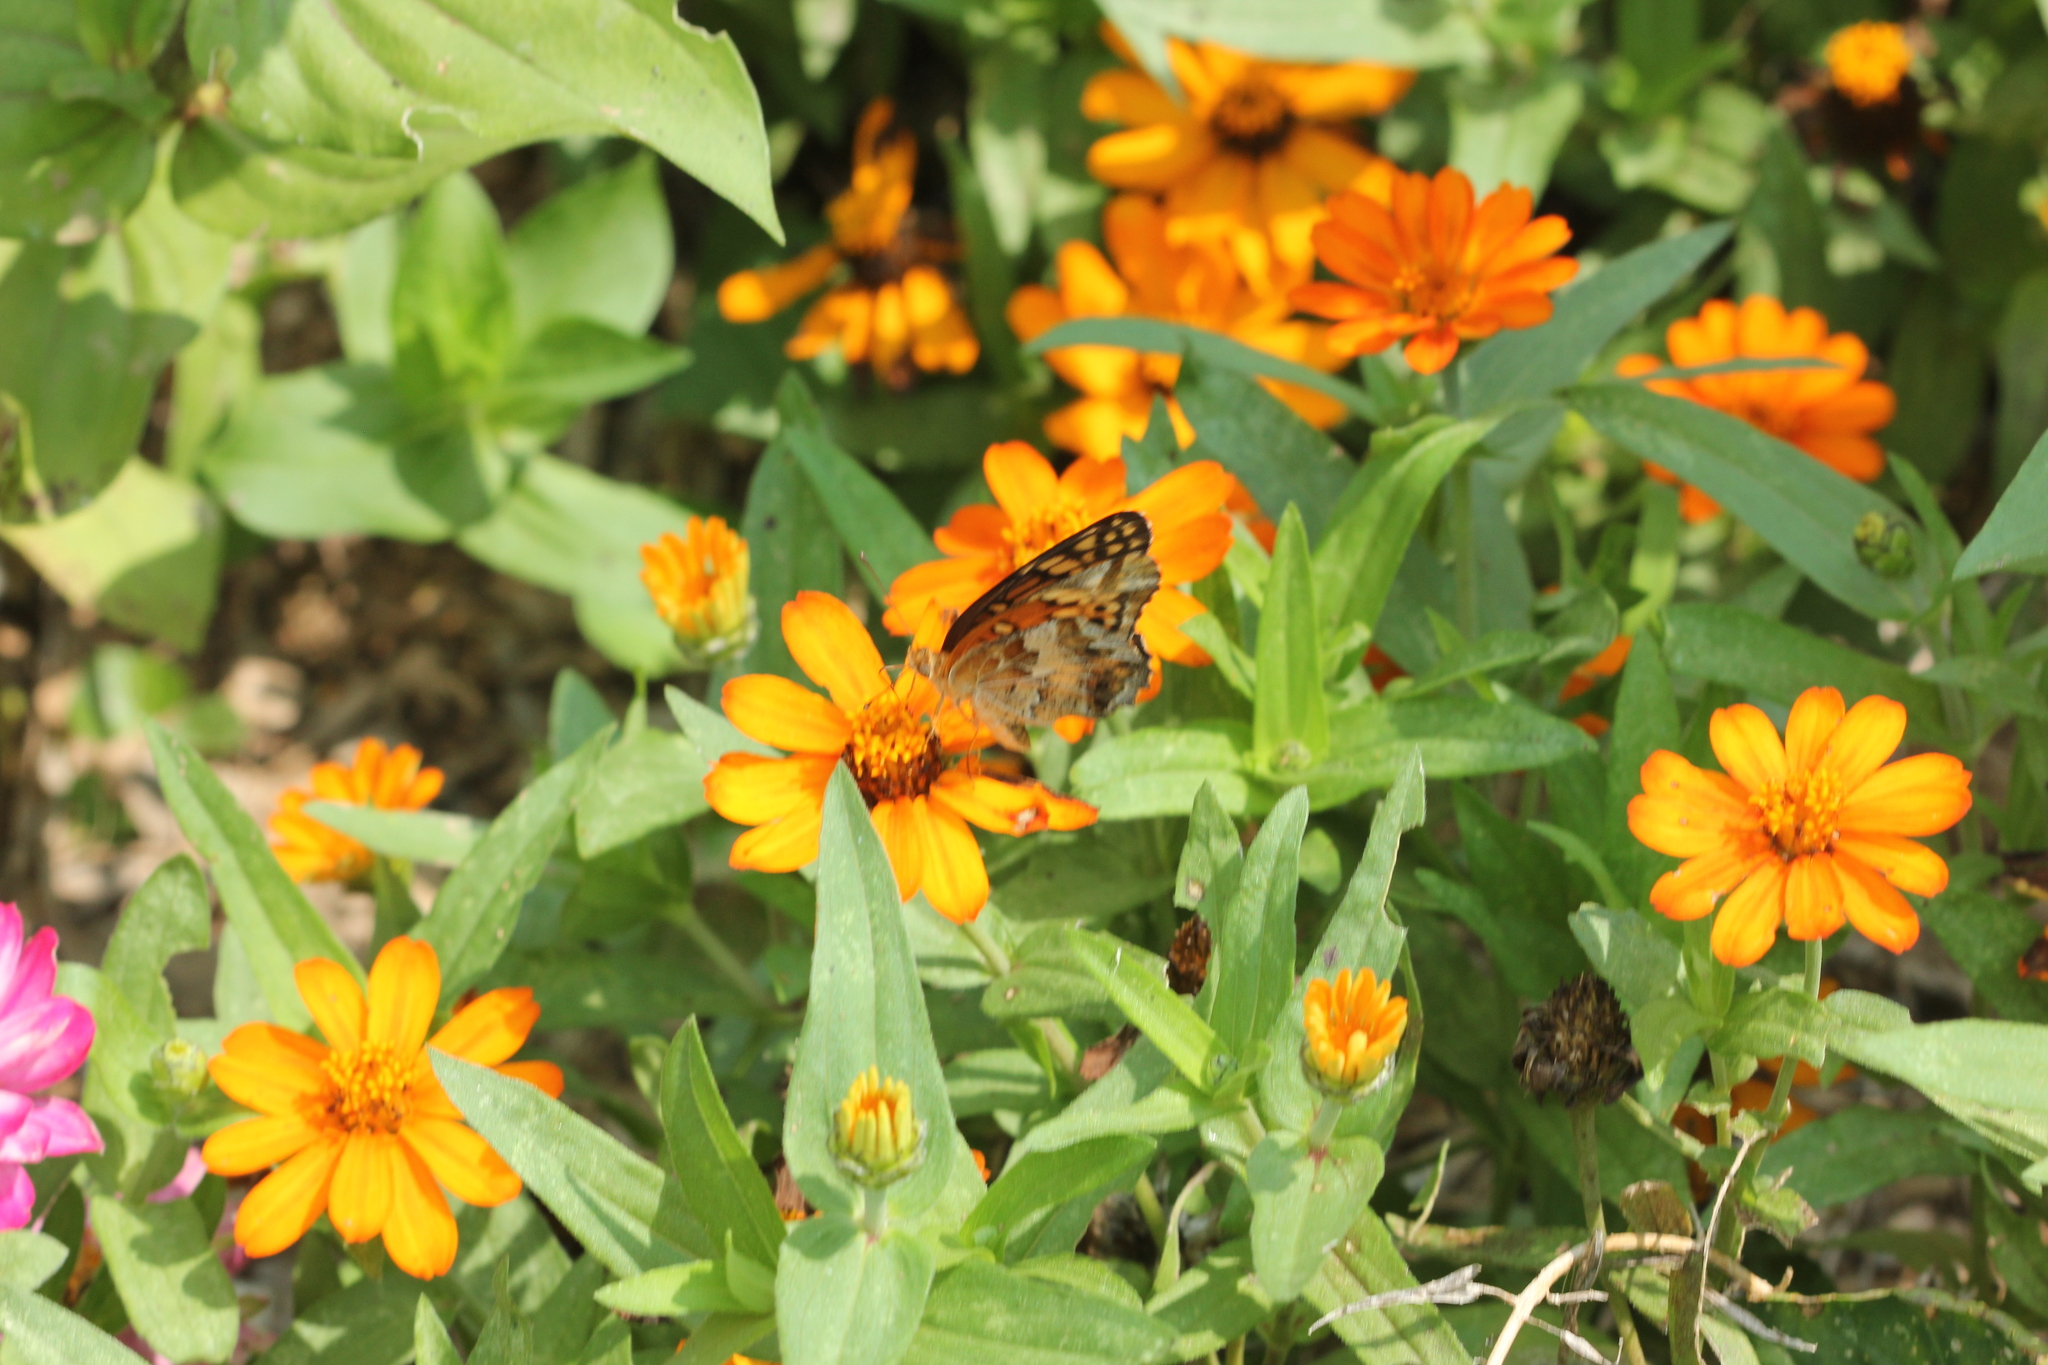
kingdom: Animalia
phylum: Arthropoda
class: Insecta
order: Lepidoptera
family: Nymphalidae
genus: Euptoieta
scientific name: Euptoieta claudia
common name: Variegated fritillary
